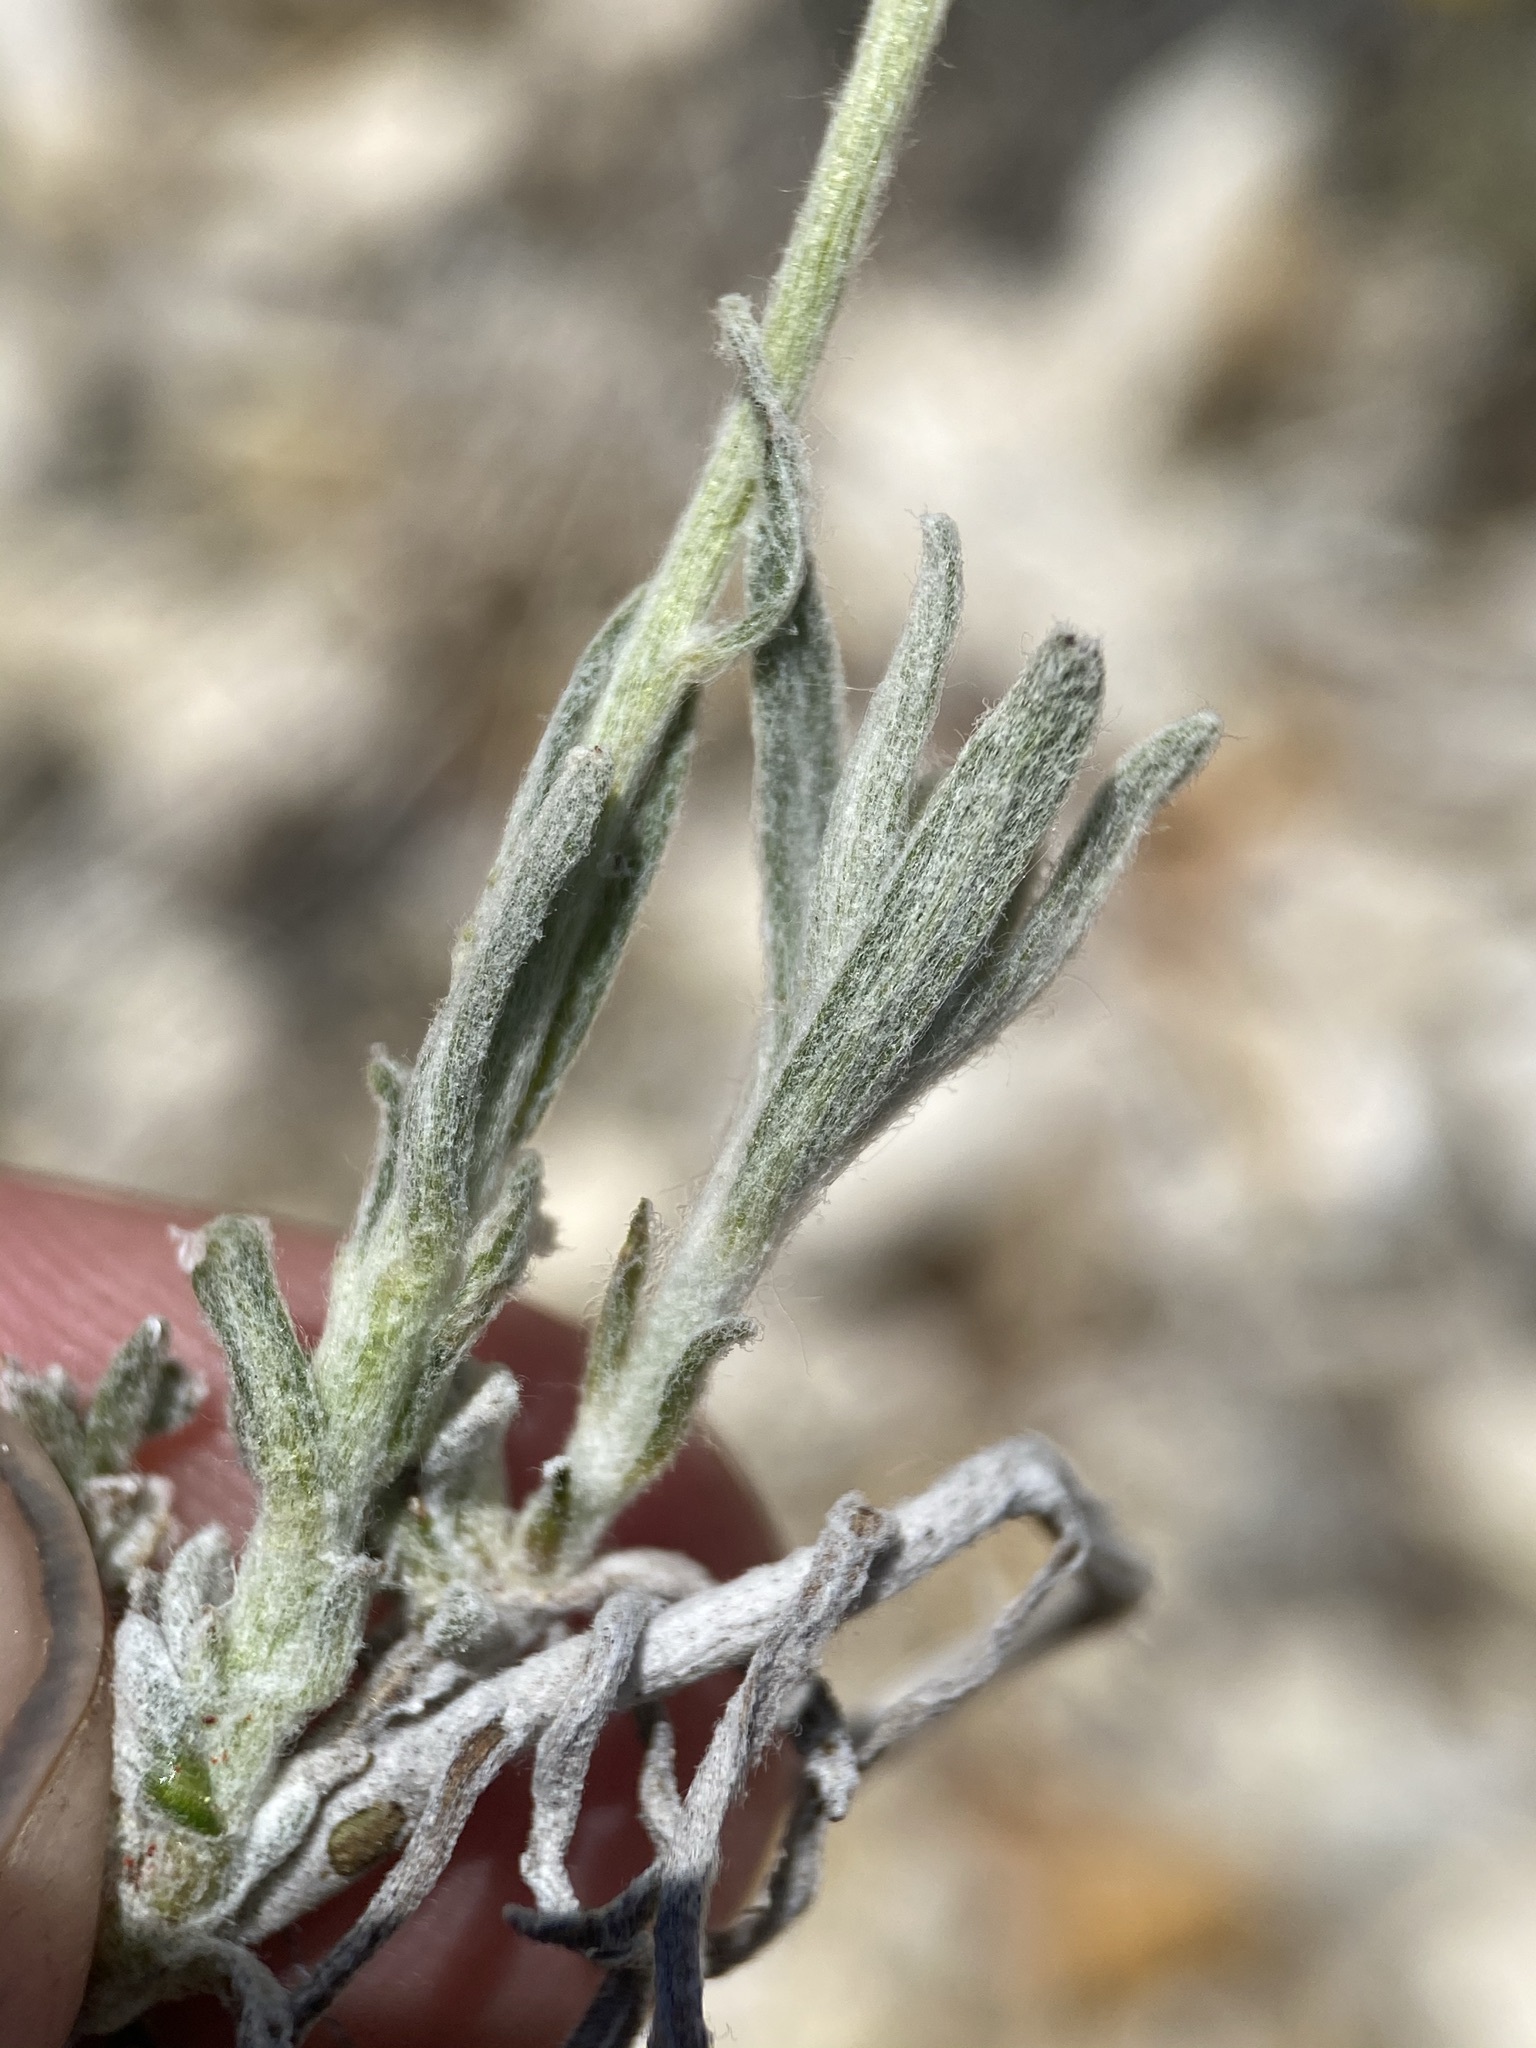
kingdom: Plantae
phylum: Tracheophyta
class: Magnoliopsida
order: Asterales
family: Asteraceae
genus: Eriophyllum
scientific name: Eriophyllum lanatum
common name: Common woolly-sunflower
